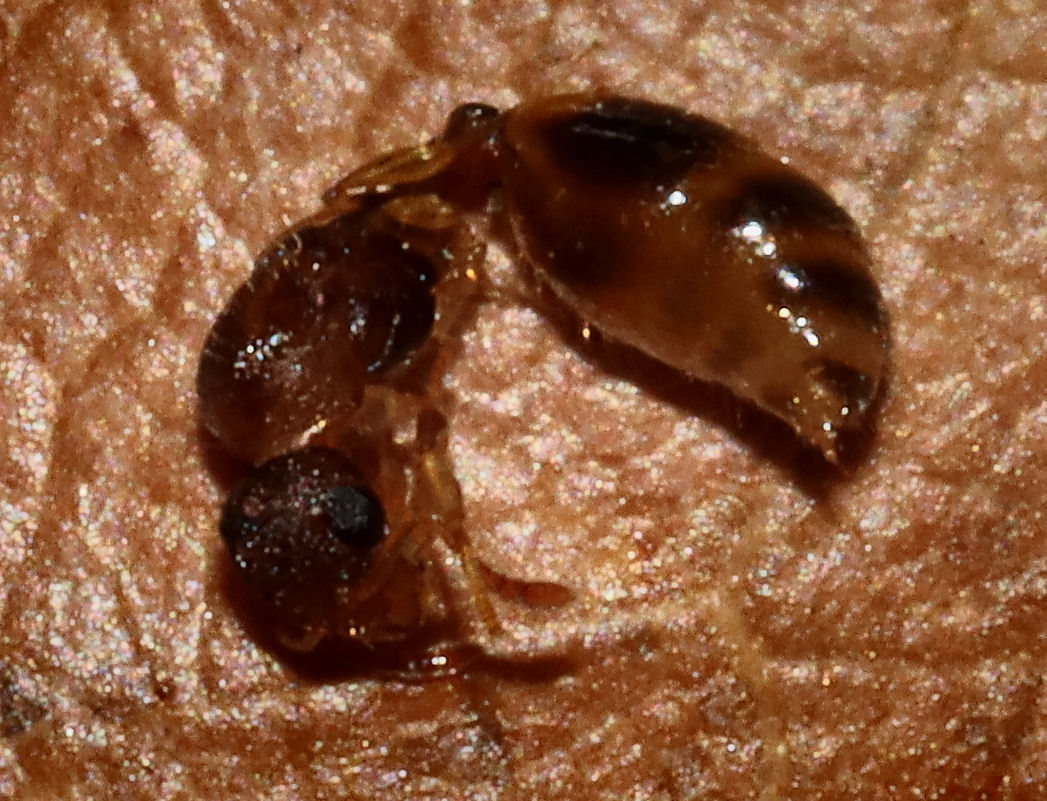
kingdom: Animalia
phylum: Arthropoda
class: Insecta
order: Hymenoptera
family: Formicidae
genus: Temnothorax
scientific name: Temnothorax
